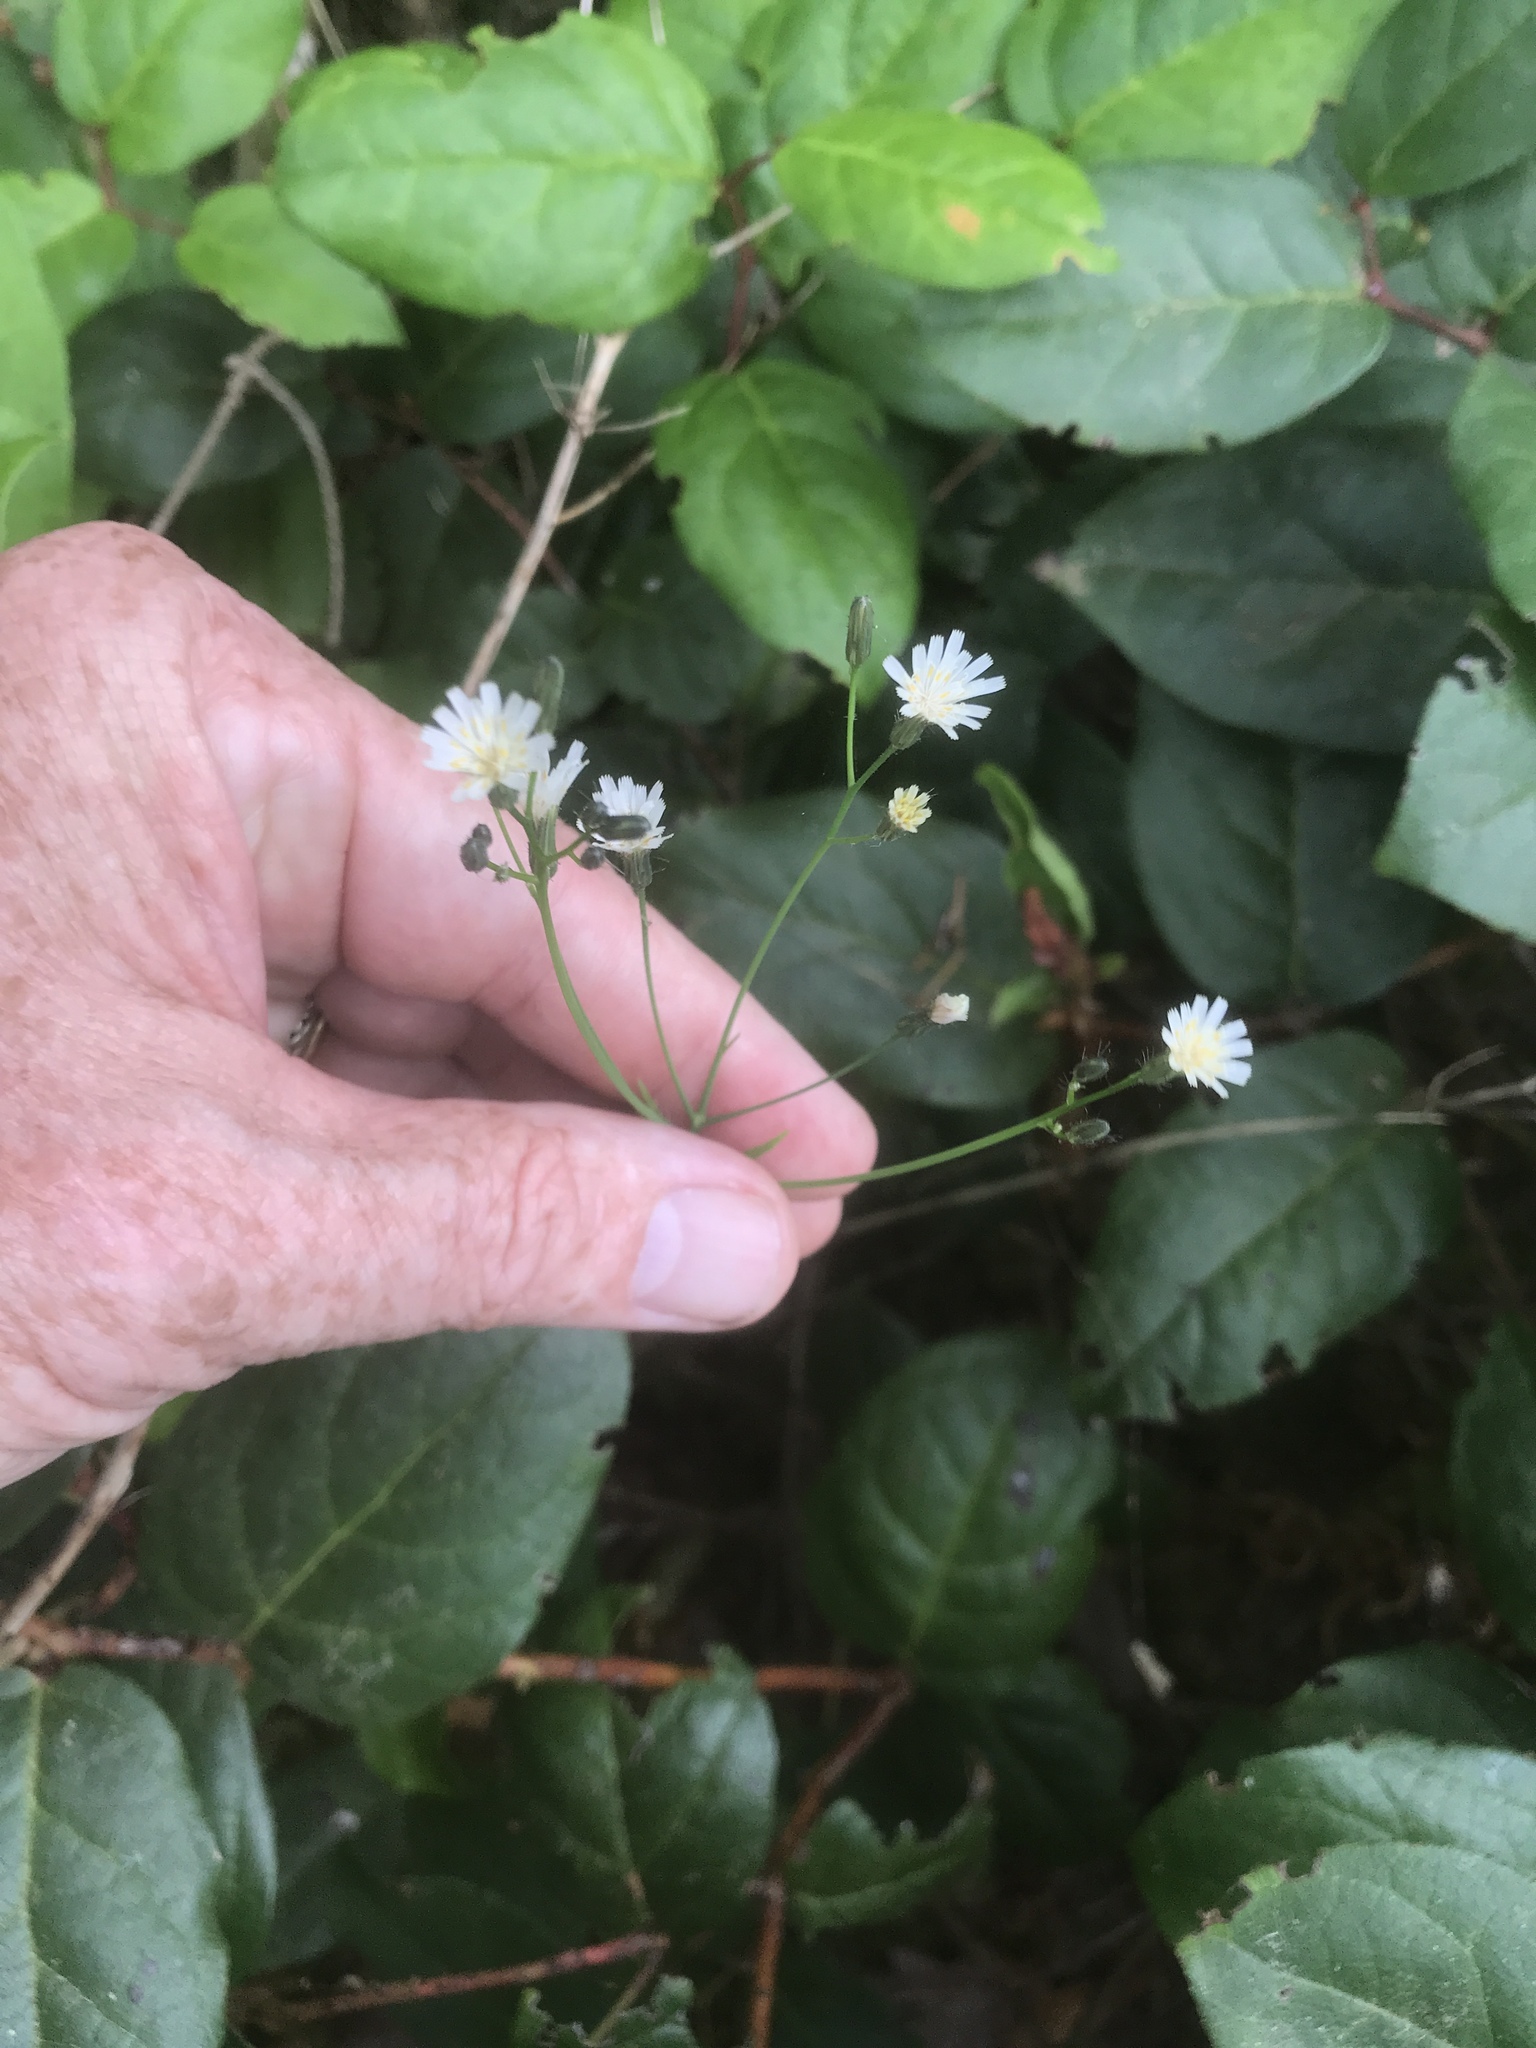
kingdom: Plantae
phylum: Tracheophyta
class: Magnoliopsida
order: Asterales
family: Asteraceae
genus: Hieracium
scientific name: Hieracium albiflorum
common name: White hawkweed
